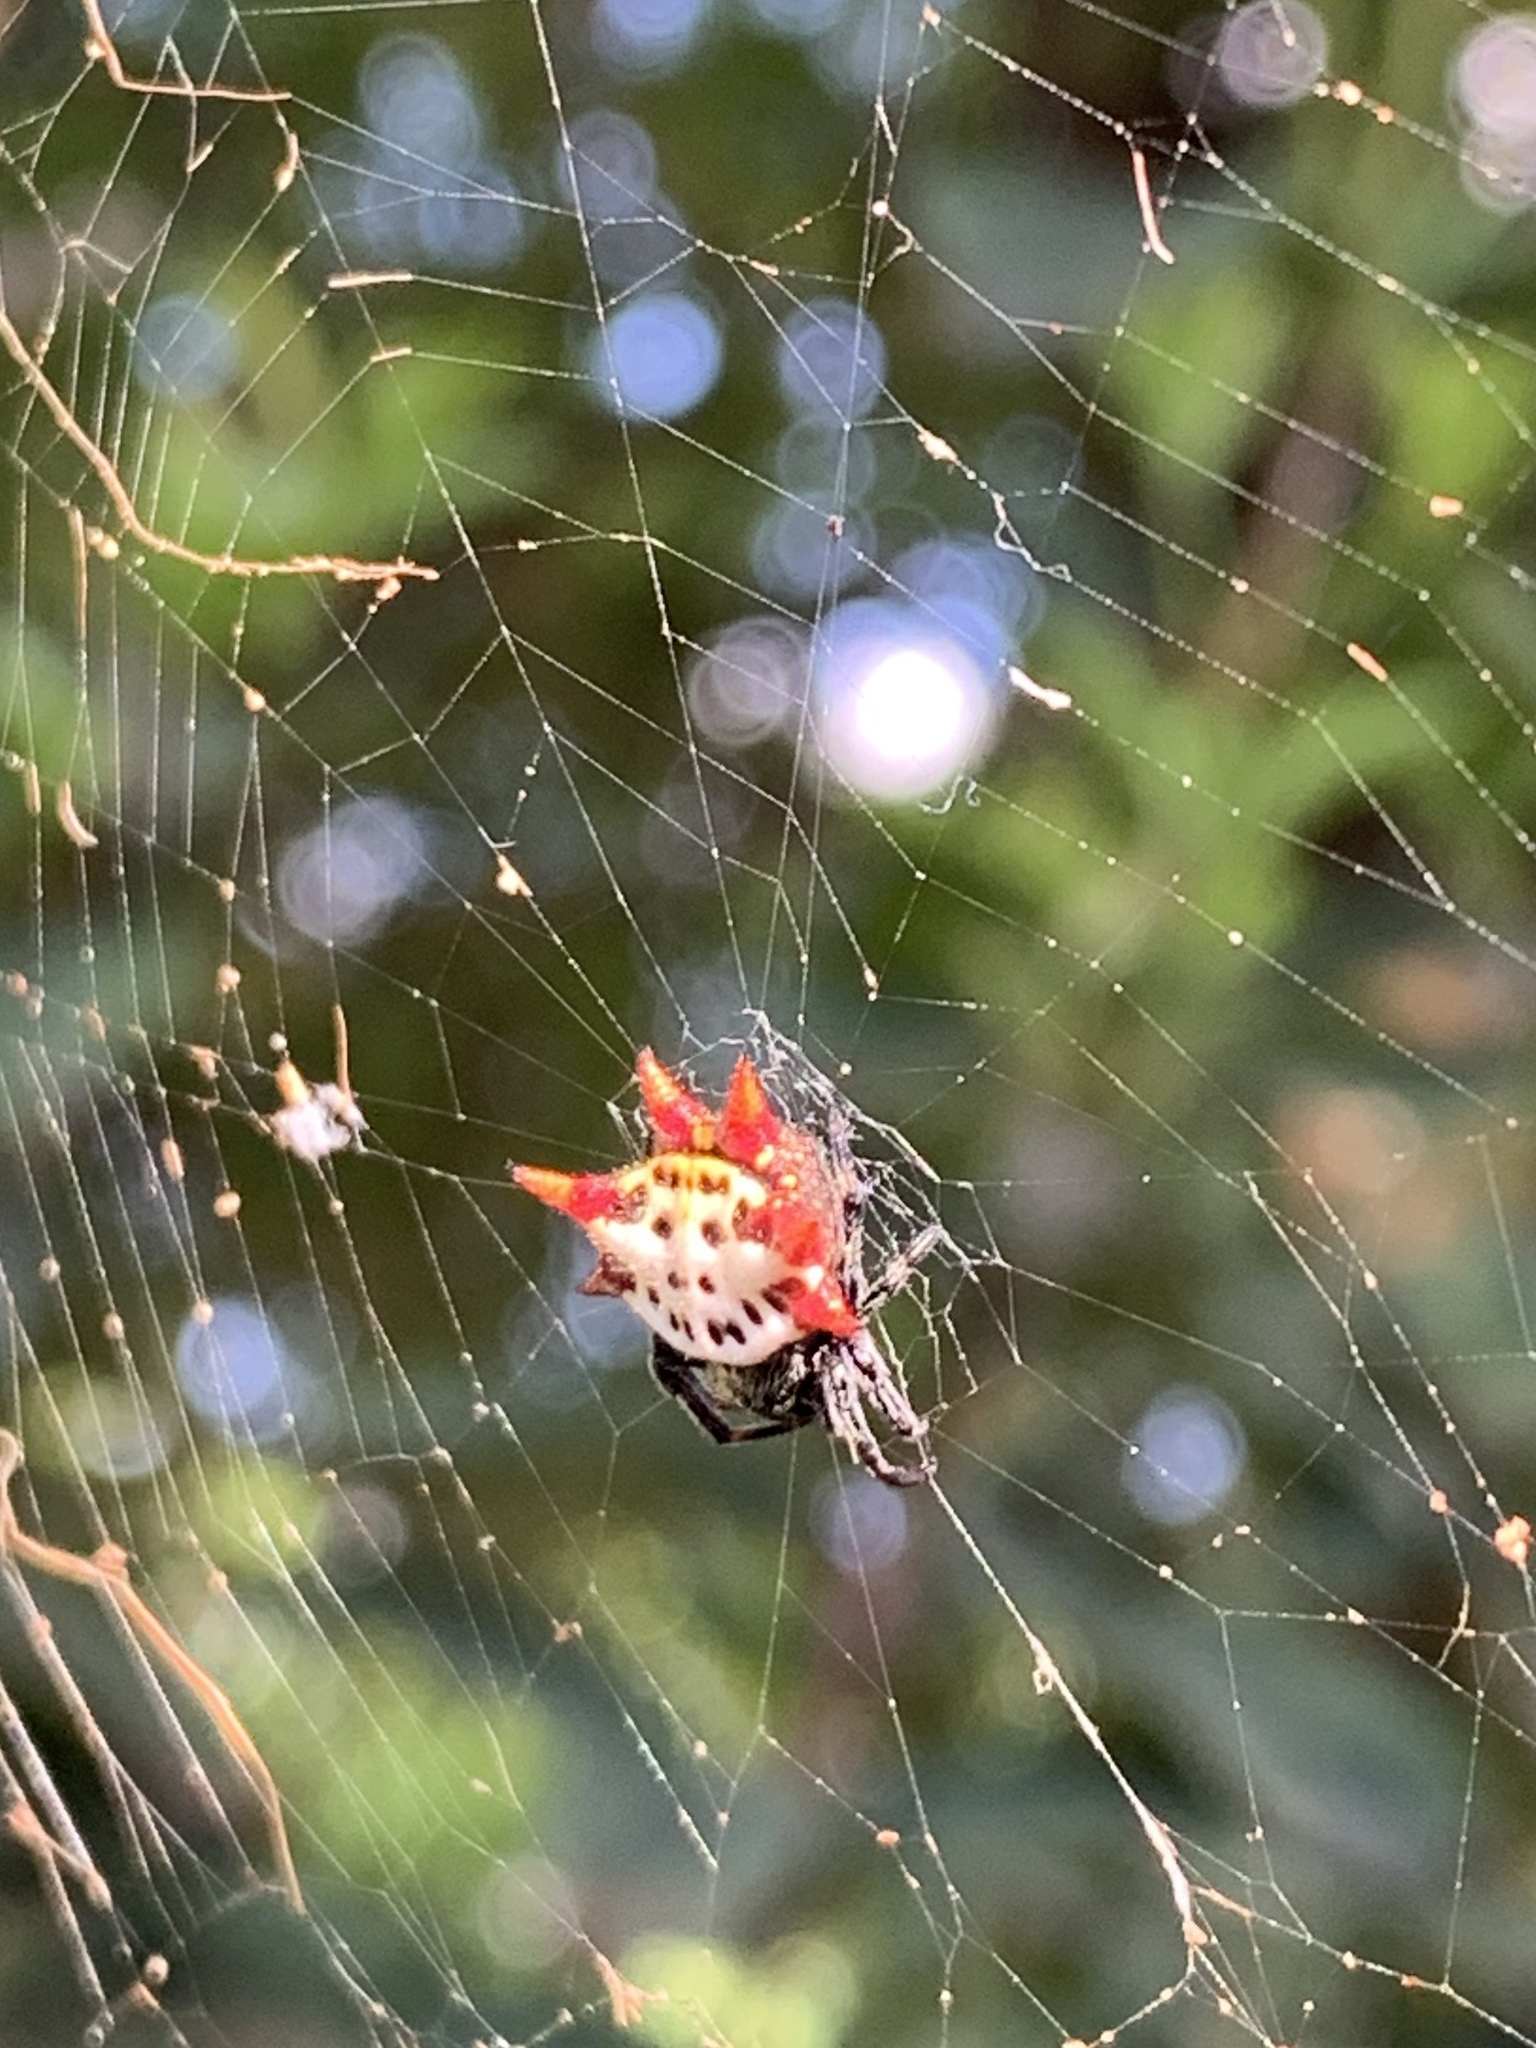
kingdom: Animalia
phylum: Arthropoda
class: Arachnida
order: Araneae
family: Araneidae
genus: Gasteracantha
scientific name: Gasteracantha cancriformis
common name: Orb weavers
